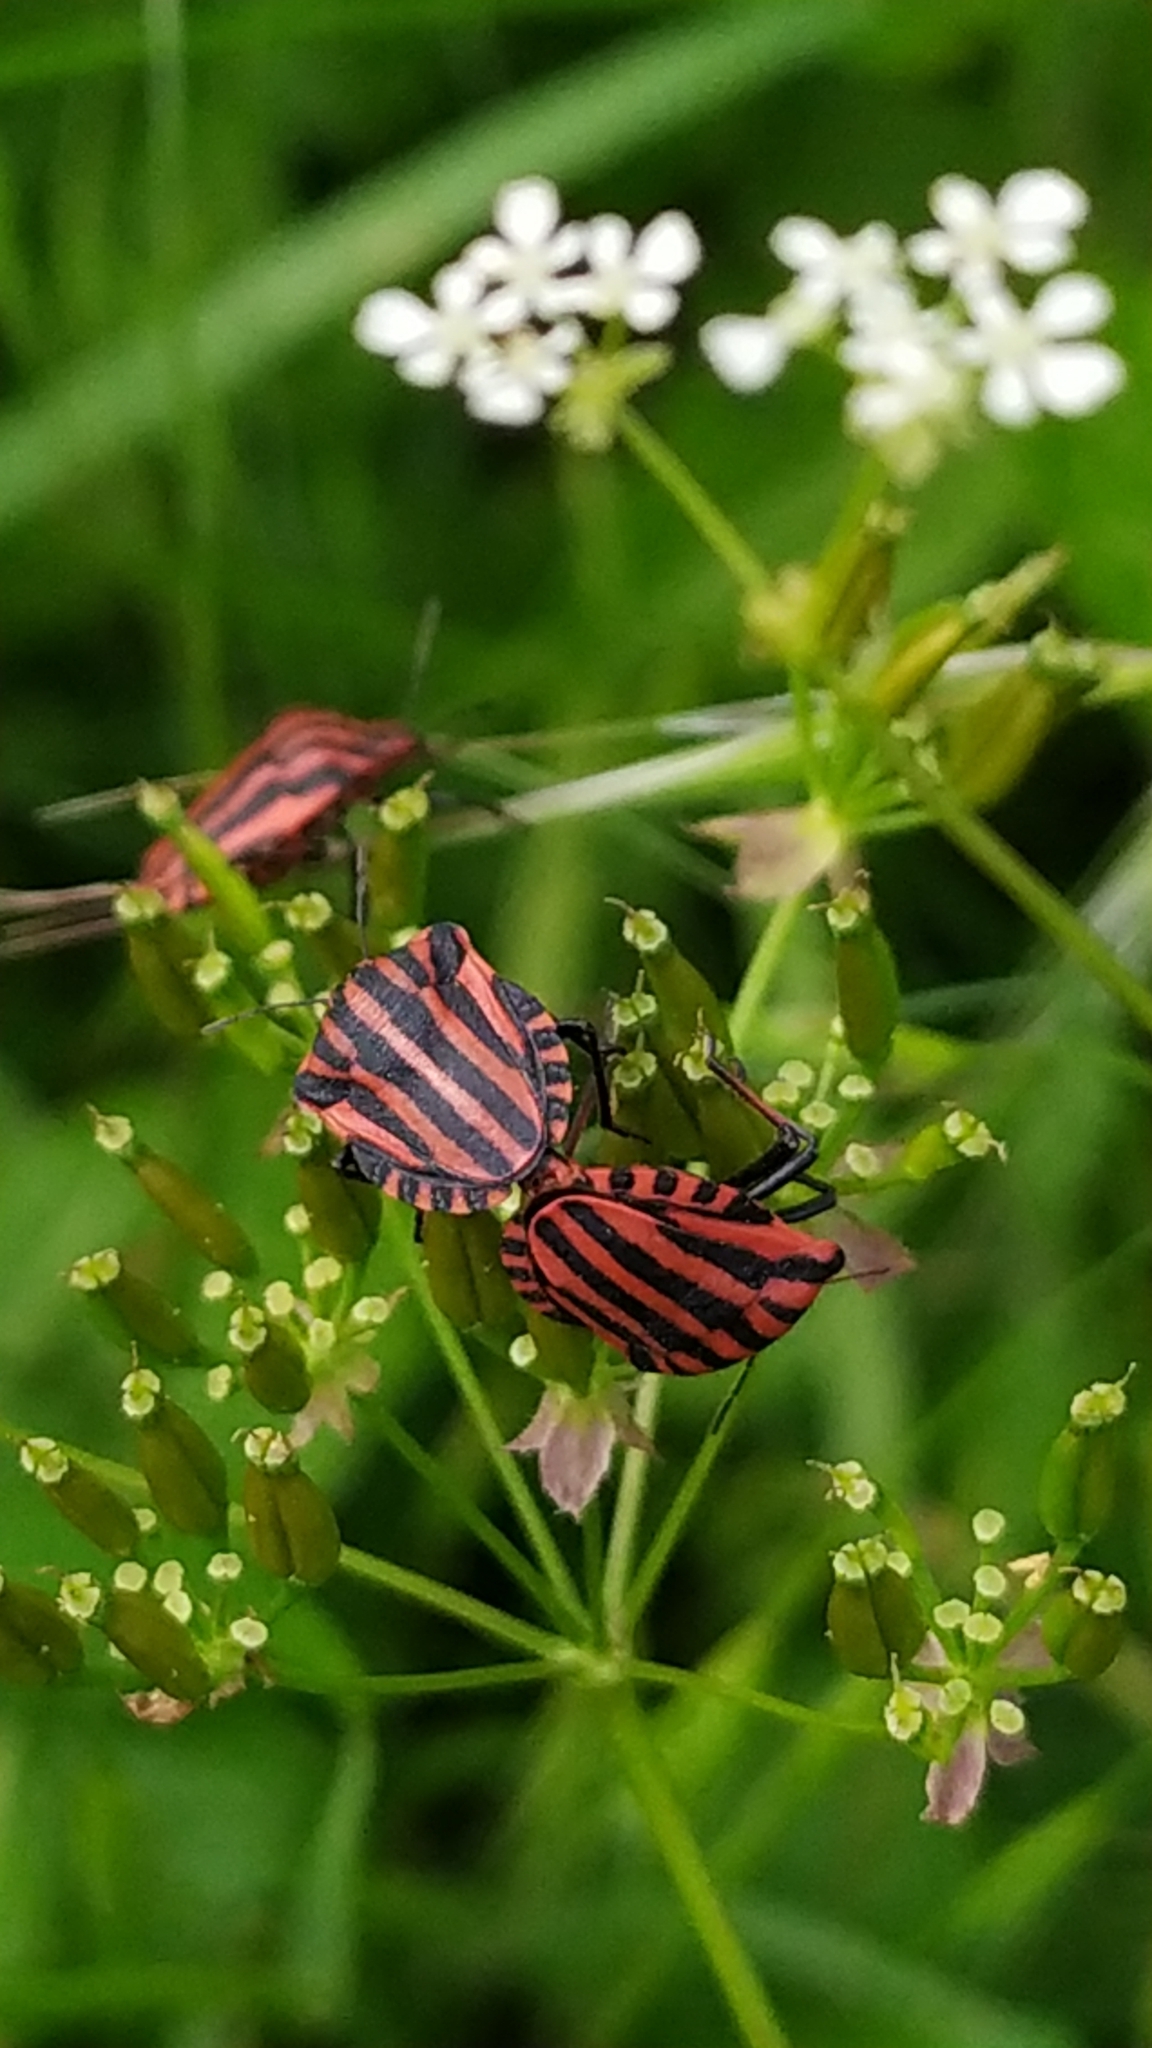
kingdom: Animalia
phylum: Arthropoda
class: Insecta
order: Hemiptera
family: Pentatomidae
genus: Graphosoma
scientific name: Graphosoma italicum
